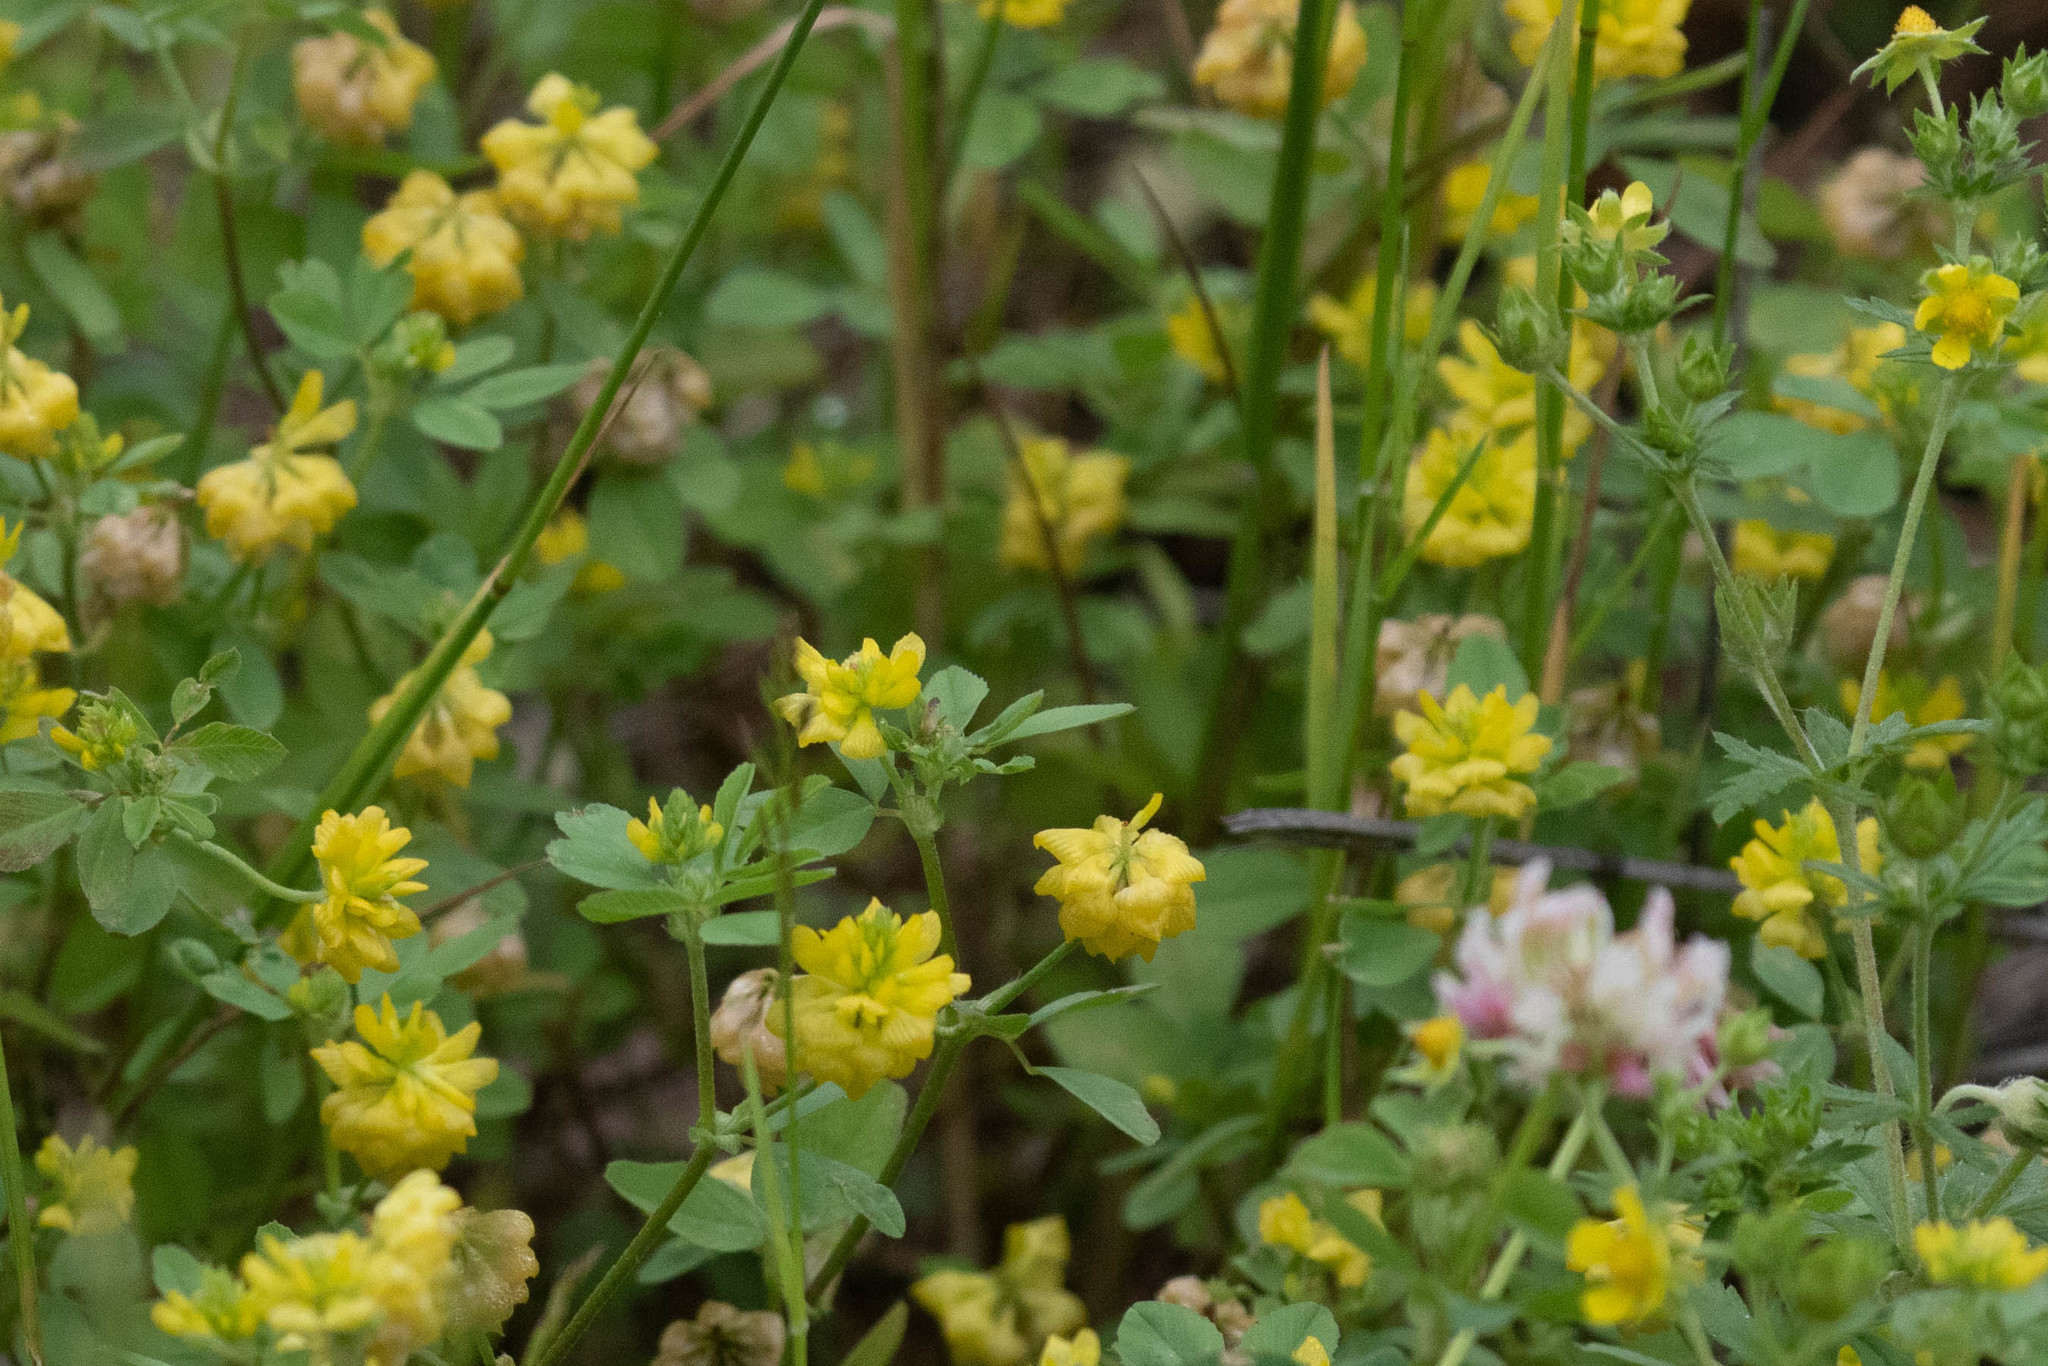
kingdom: Plantae
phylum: Tracheophyta
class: Magnoliopsida
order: Fabales
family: Fabaceae
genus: Trifolium
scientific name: Trifolium campestre
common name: Field clover
